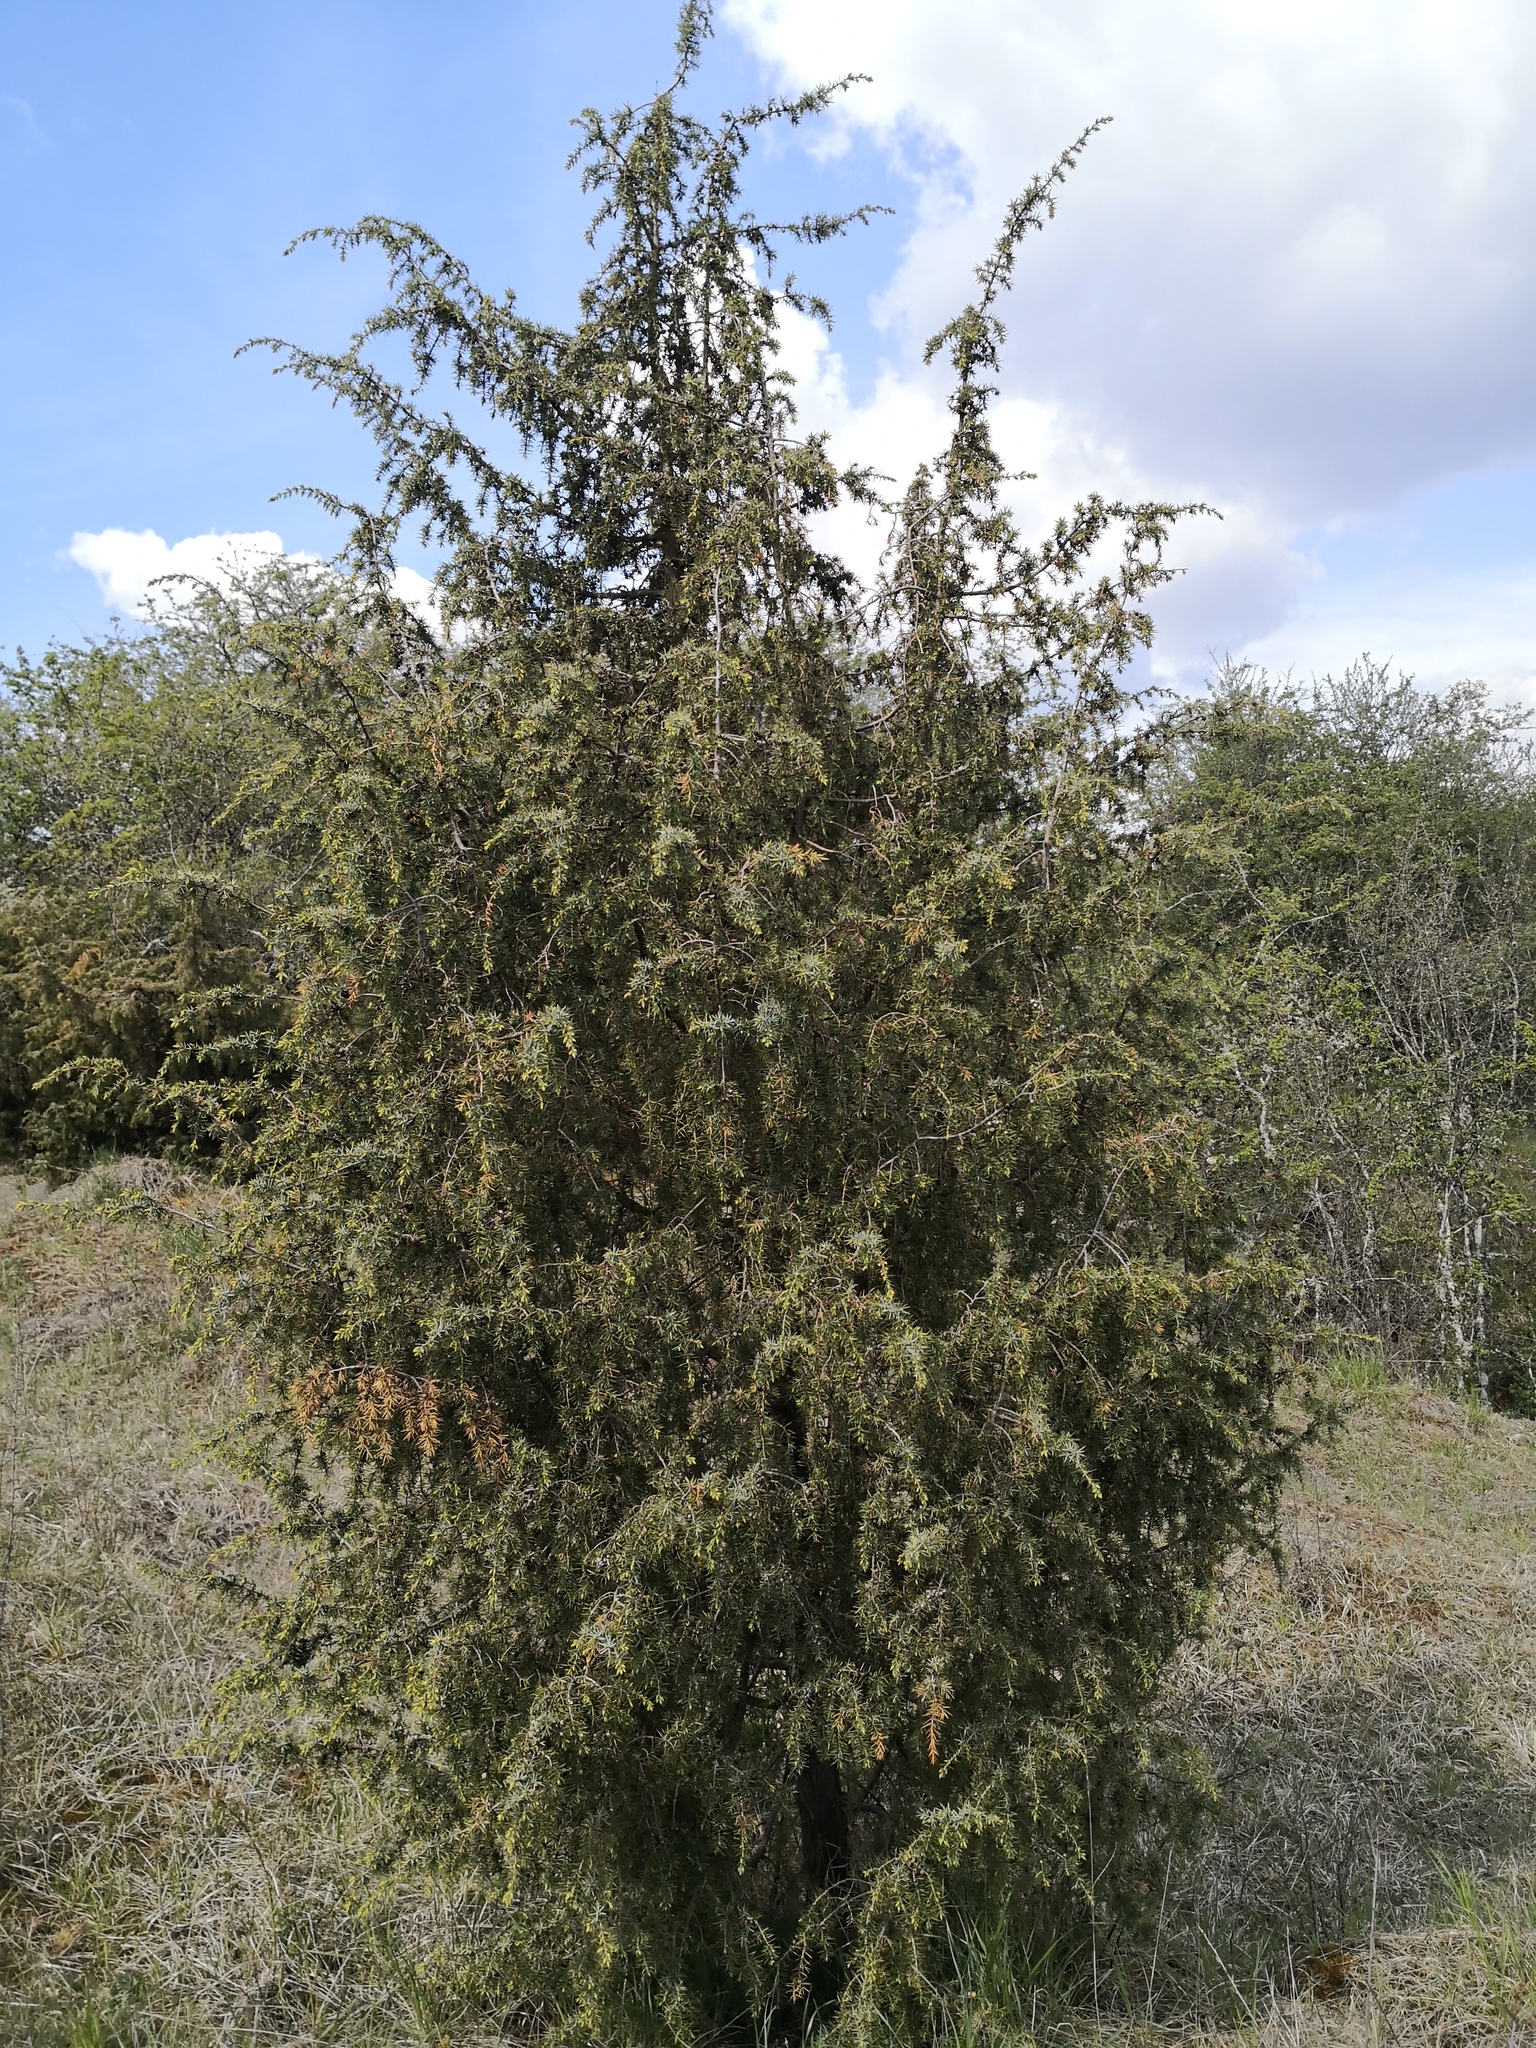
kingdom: Plantae
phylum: Tracheophyta
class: Pinopsida
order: Pinales
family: Cupressaceae
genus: Juniperus
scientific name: Juniperus communis
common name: Common juniper
